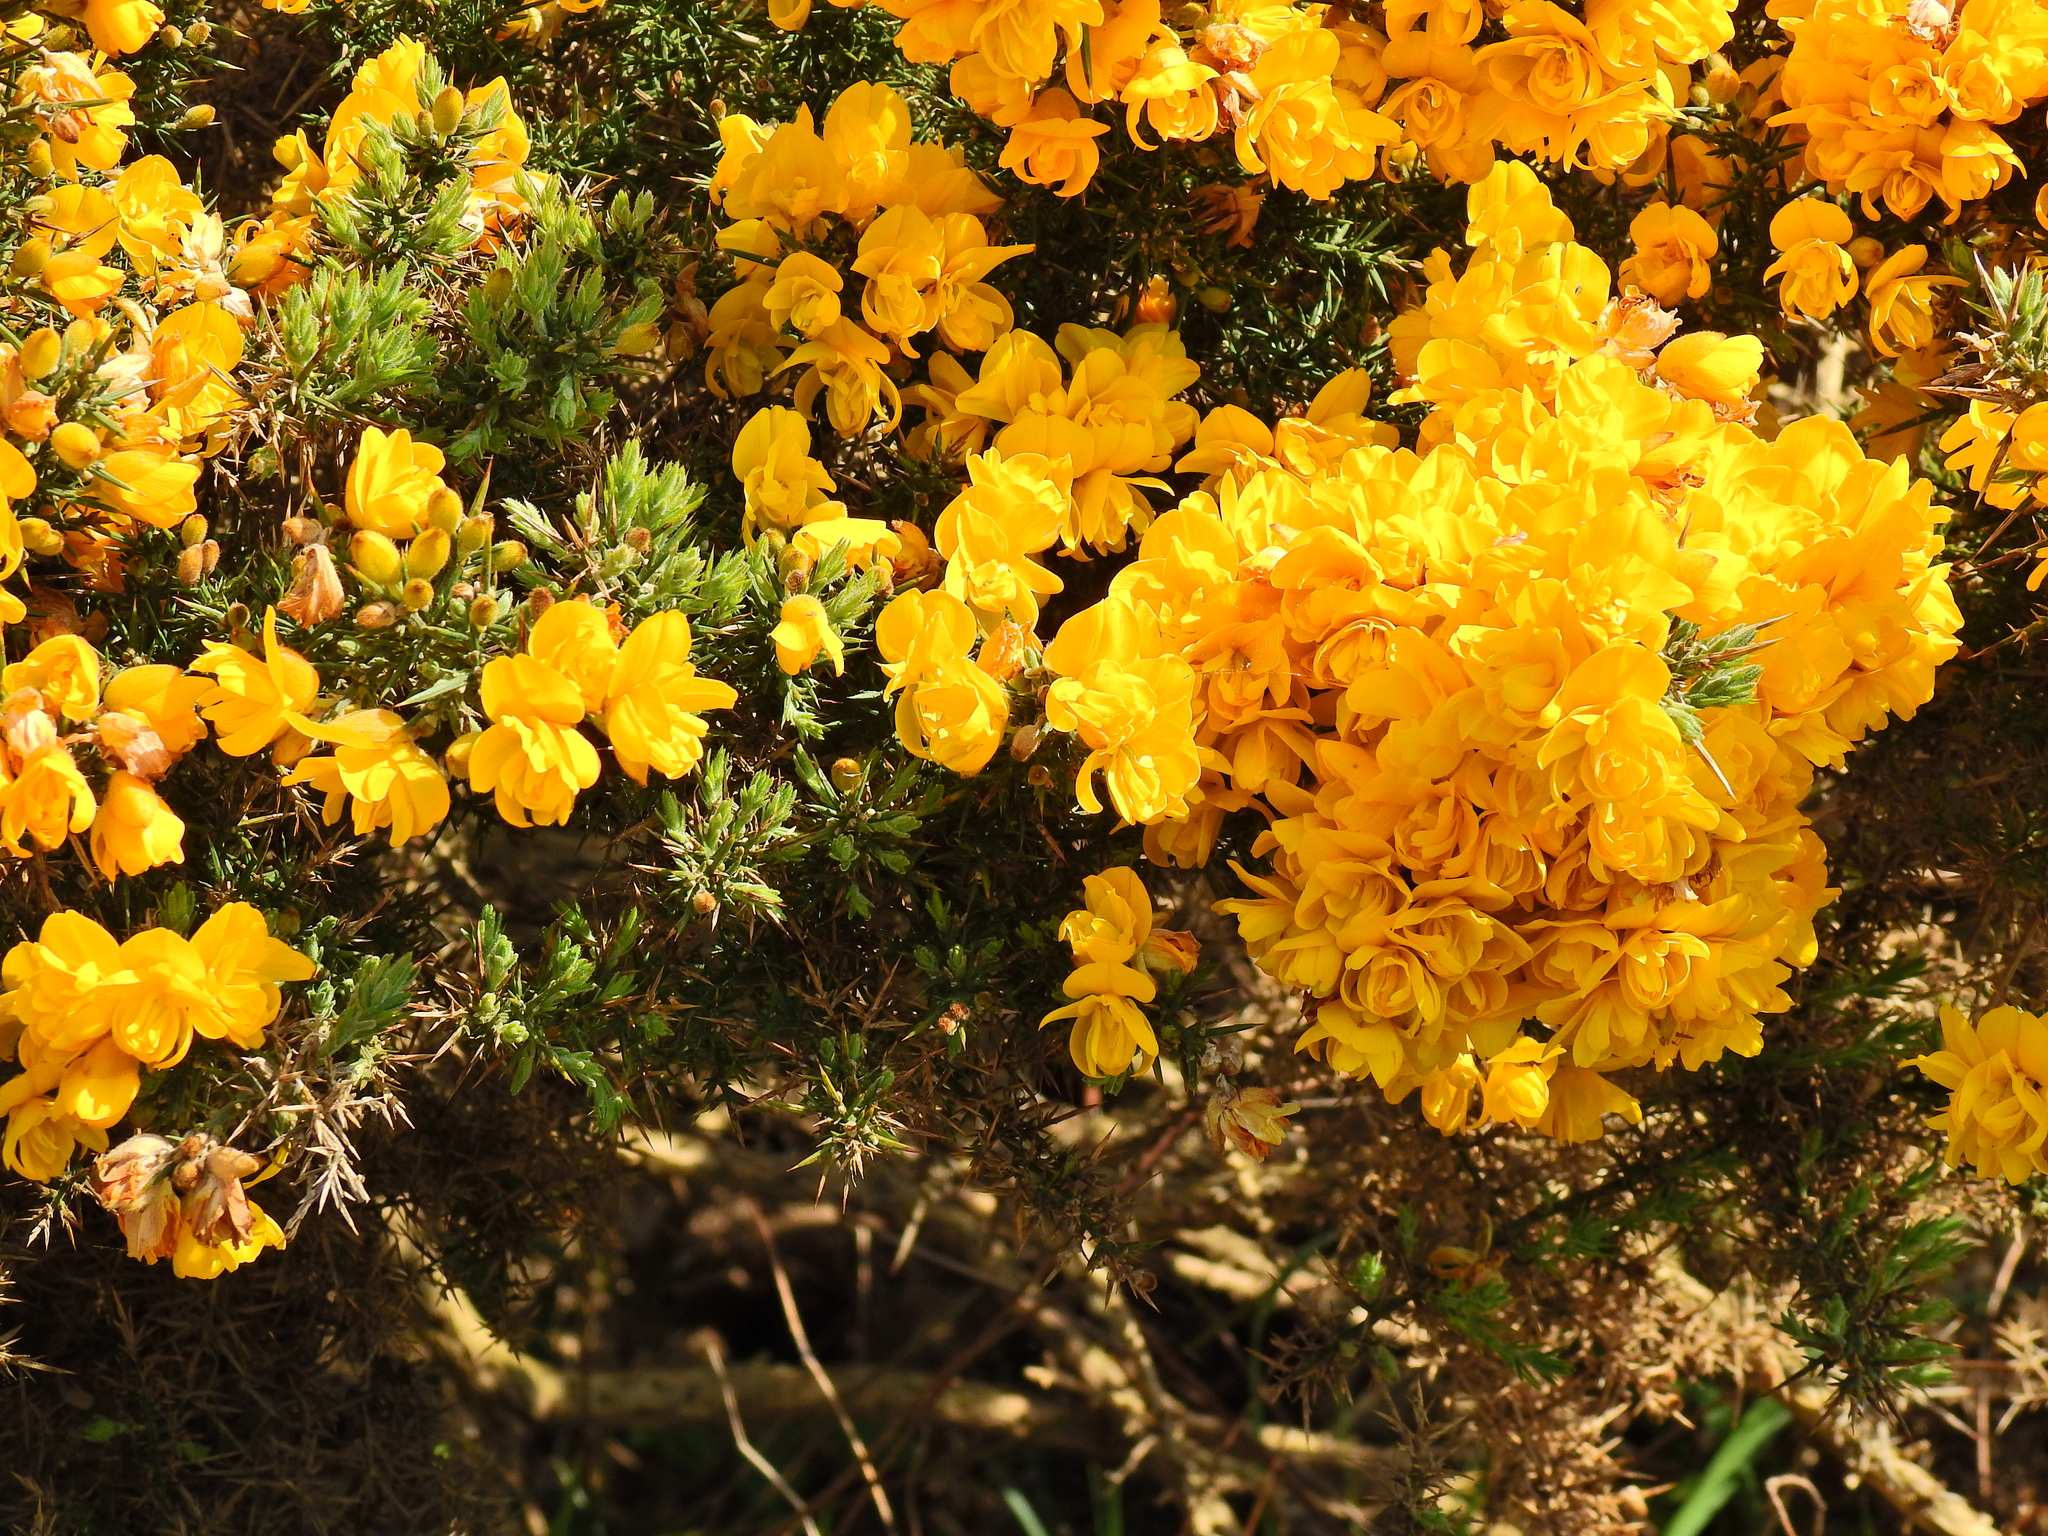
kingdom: Plantae
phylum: Tracheophyta
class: Magnoliopsida
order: Fabales
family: Fabaceae
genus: Ulex
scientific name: Ulex europaeus
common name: Common gorse
